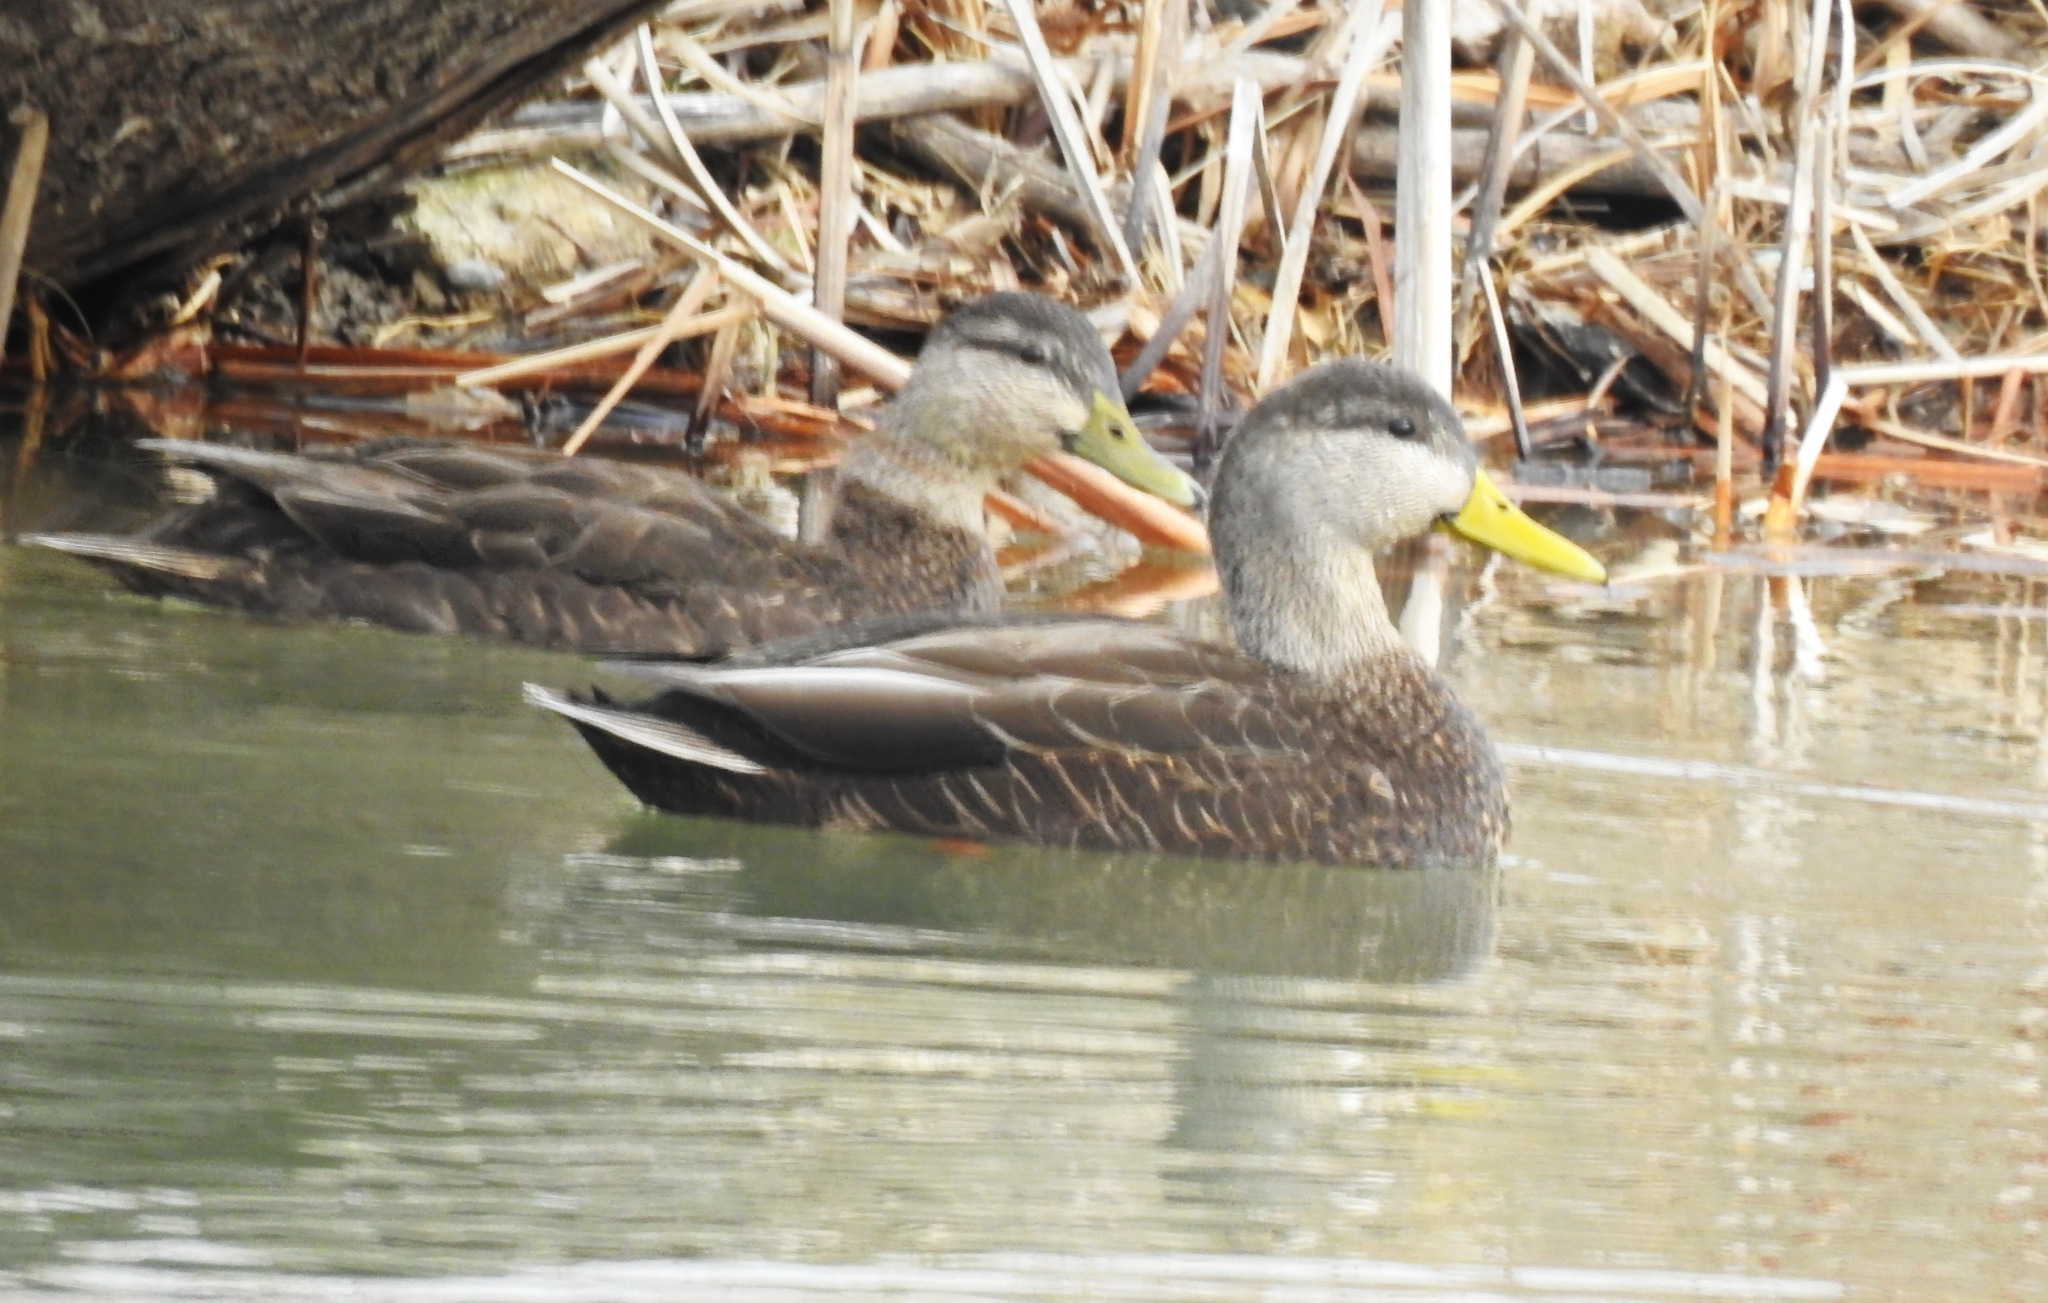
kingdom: Animalia
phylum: Chordata
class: Aves
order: Anseriformes
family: Anatidae
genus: Anas
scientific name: Anas rubripes
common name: American black duck
